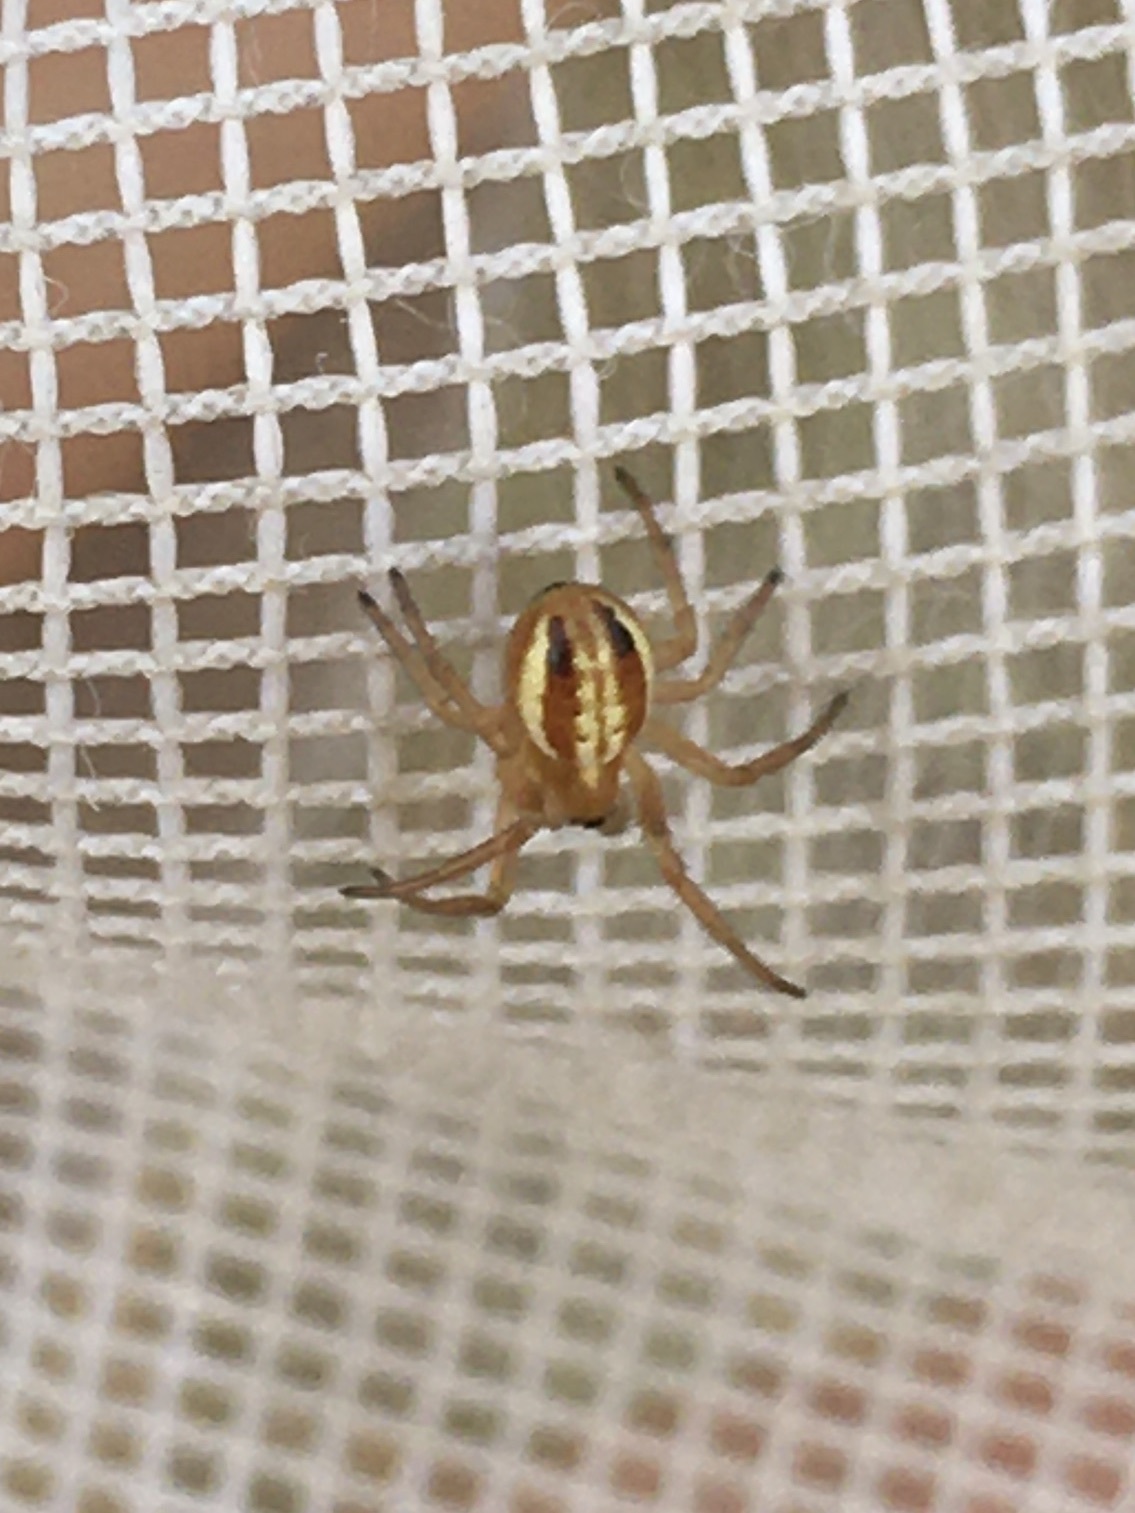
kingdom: Animalia
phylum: Arthropoda
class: Arachnida
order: Araneae
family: Araneidae
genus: Araneus
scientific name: Araneus pratensis
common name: Openfield orbweaver
